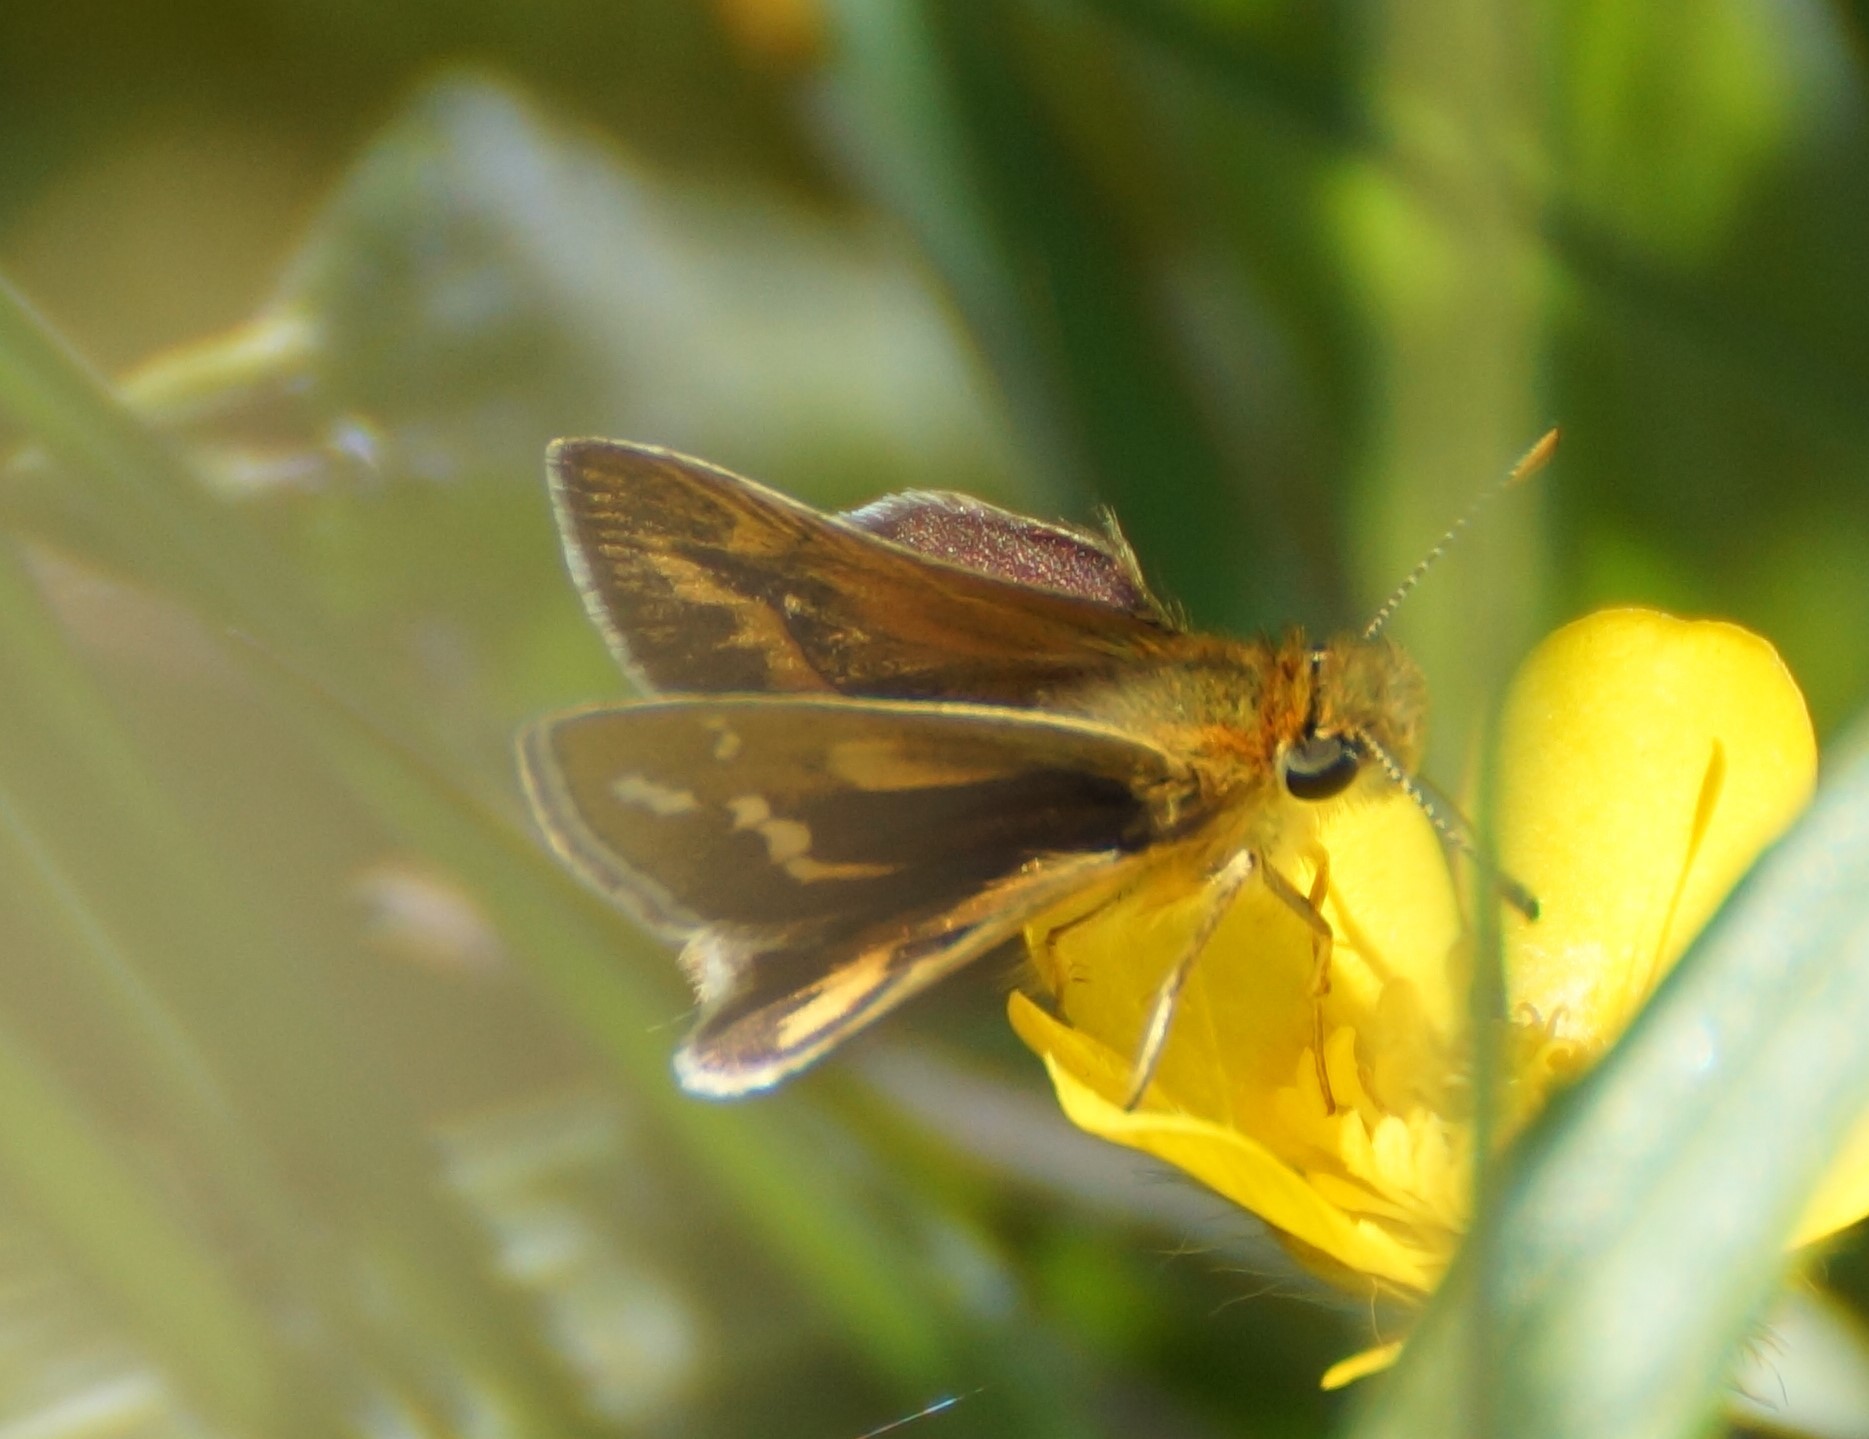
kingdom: Animalia
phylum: Arthropoda
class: Insecta
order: Lepidoptera
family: Hesperiidae
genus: Taractrocera
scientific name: Taractrocera papyria
